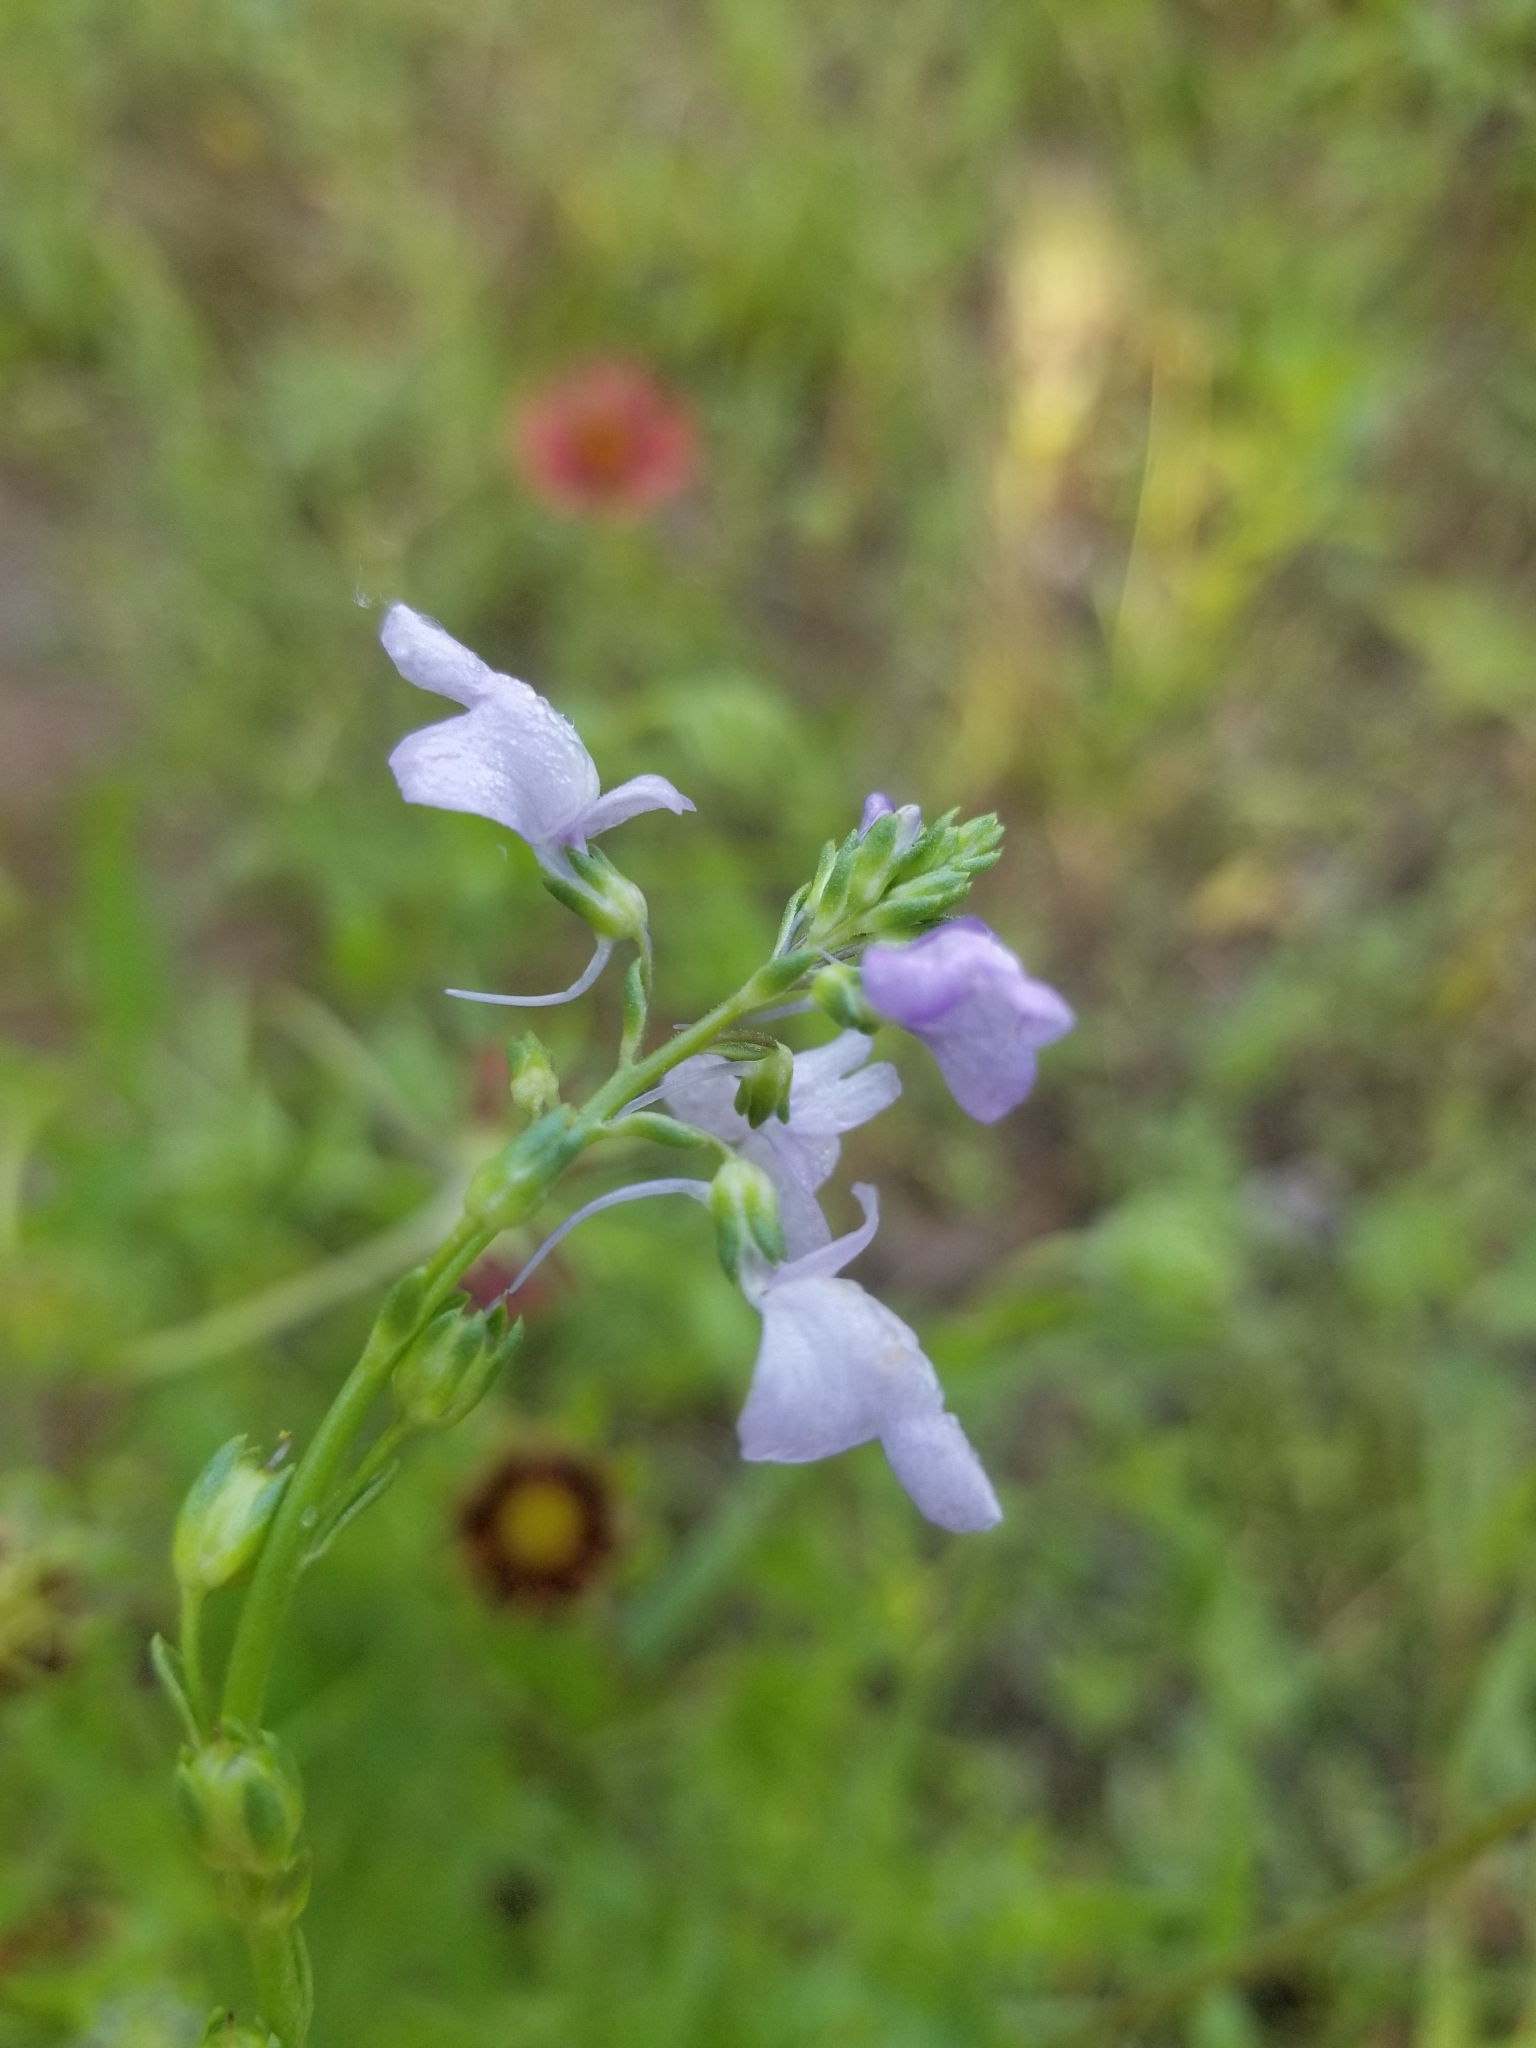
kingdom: Plantae
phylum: Tracheophyta
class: Magnoliopsida
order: Lamiales
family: Plantaginaceae
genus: Nuttallanthus
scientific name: Nuttallanthus texanus
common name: Texas toadflax
